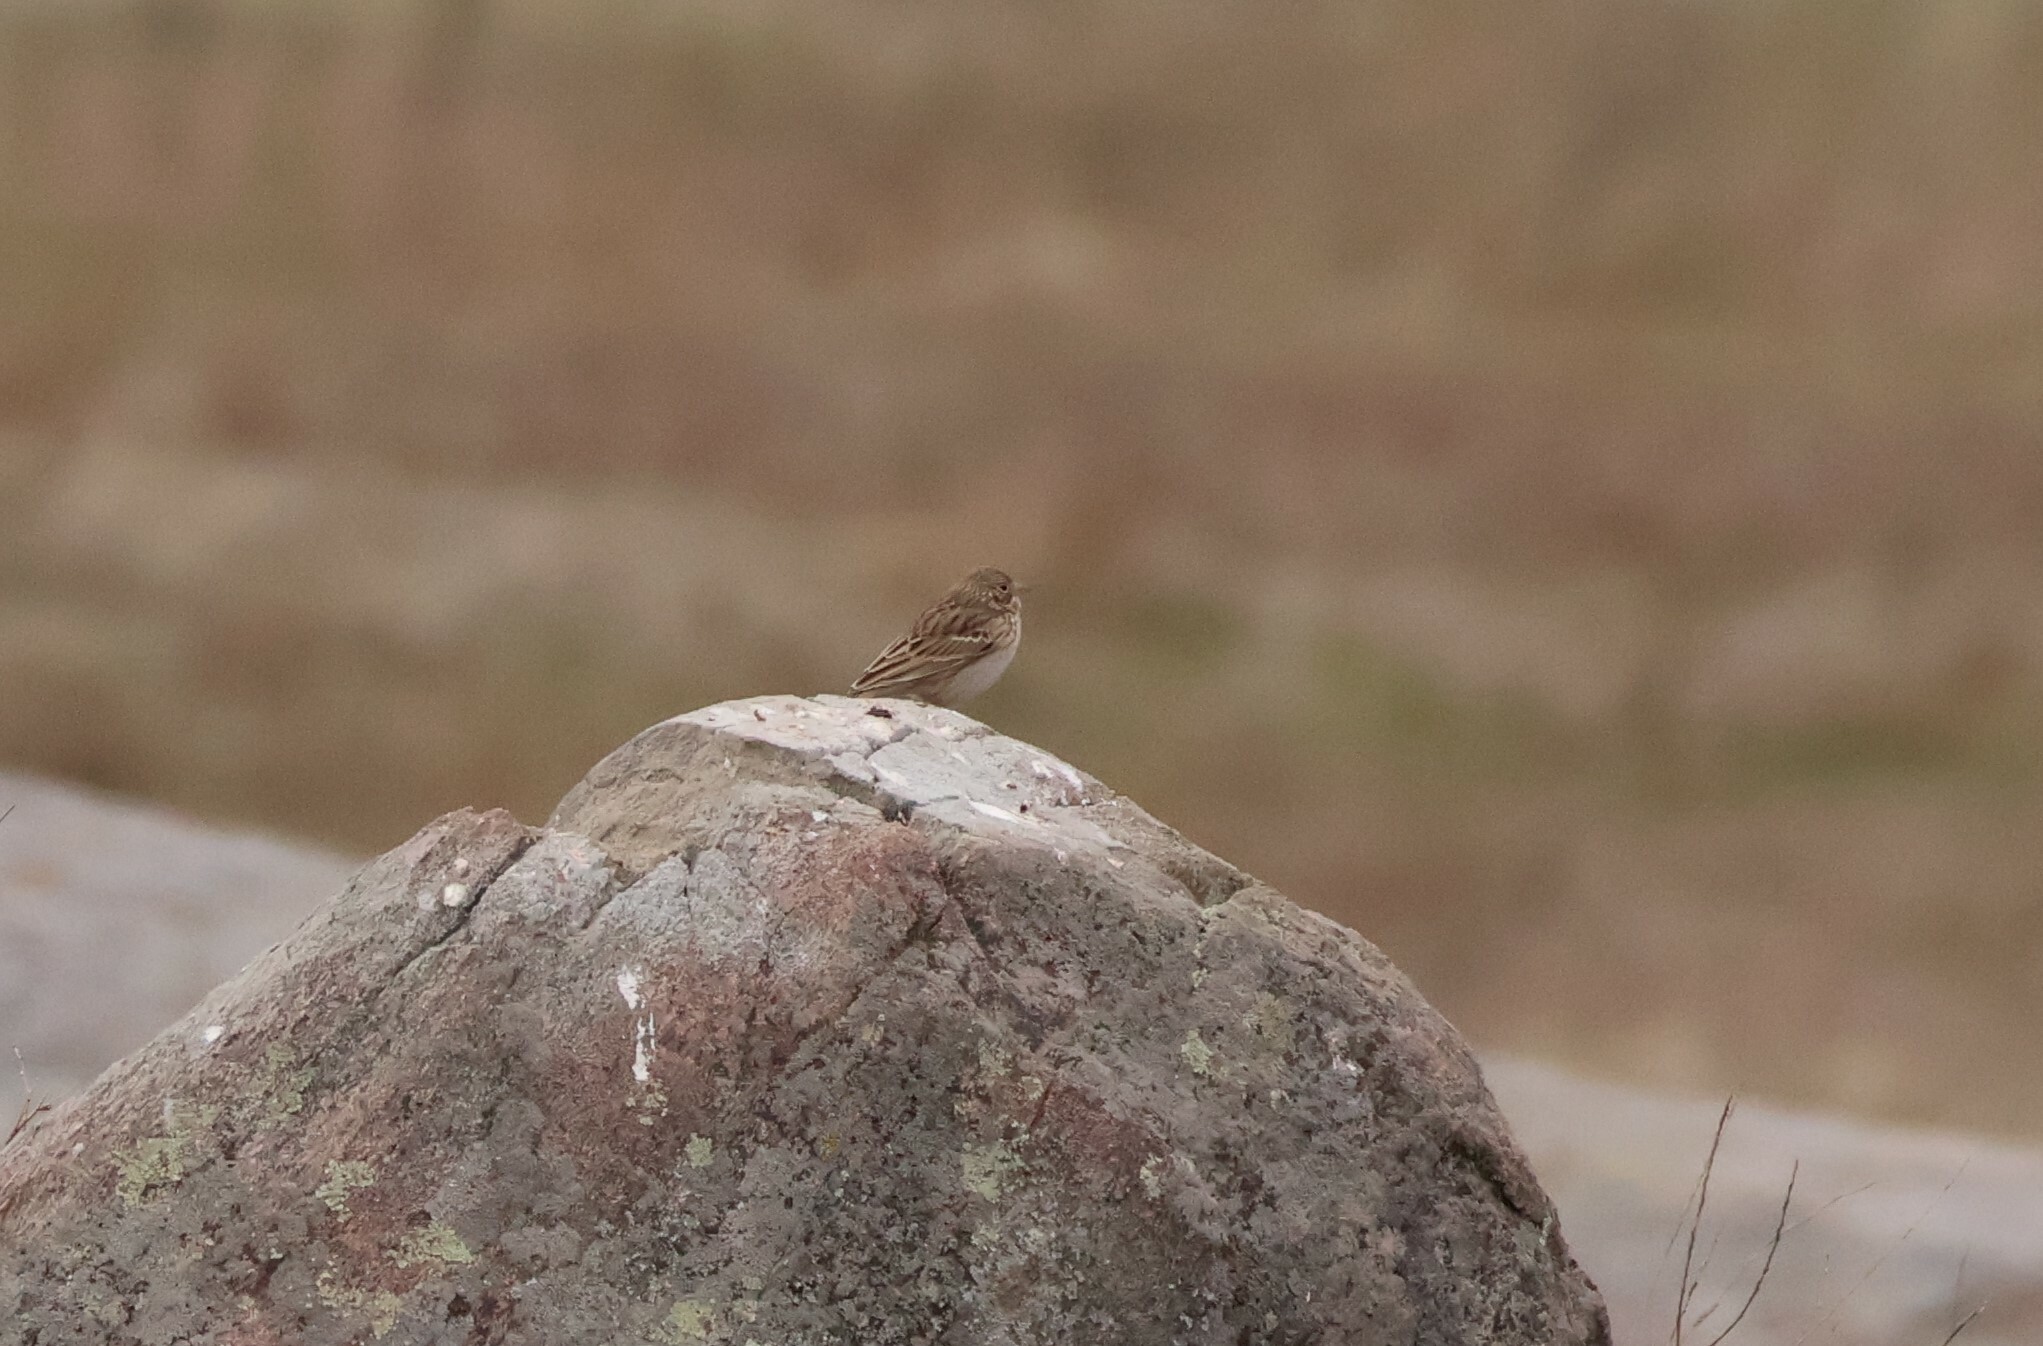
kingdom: Animalia
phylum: Chordata
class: Aves
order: Passeriformes
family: Passerellidae
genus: Pooecetes
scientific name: Pooecetes gramineus
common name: Vesper sparrow
